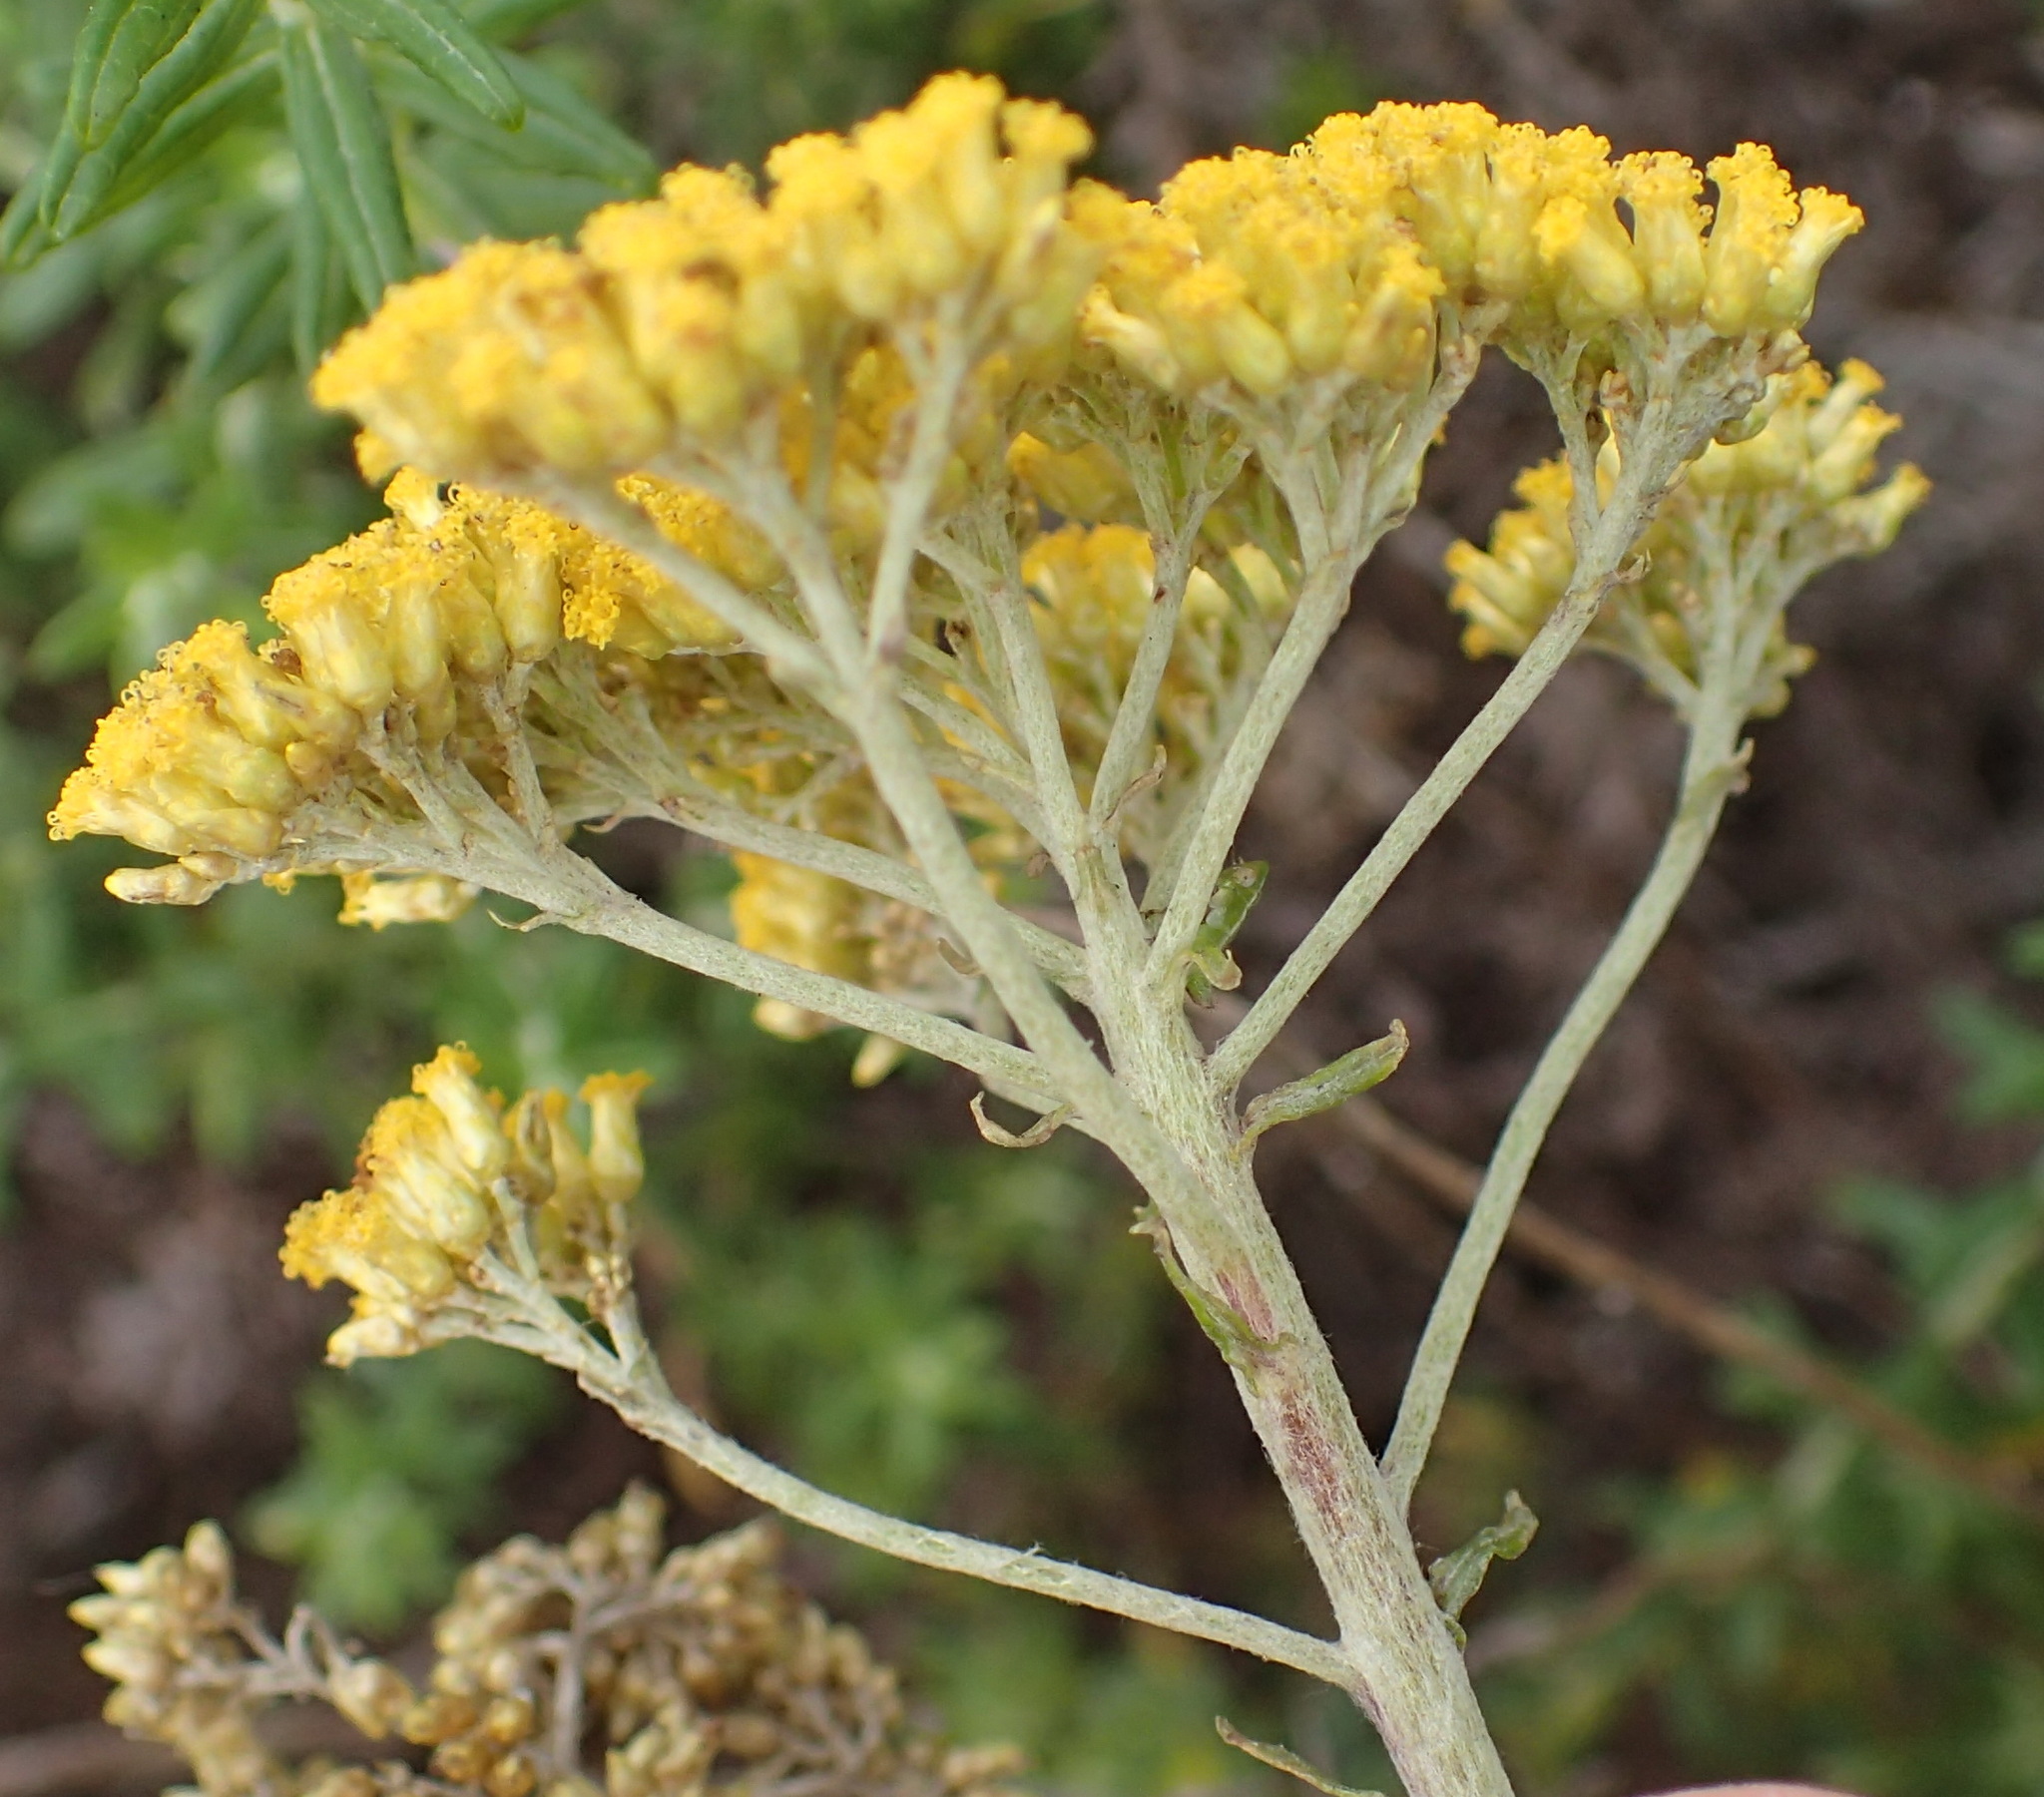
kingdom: Plantae
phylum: Tracheophyta
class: Magnoliopsida
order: Asterales
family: Asteraceae
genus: Helichrysum
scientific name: Helichrysum cymosum
